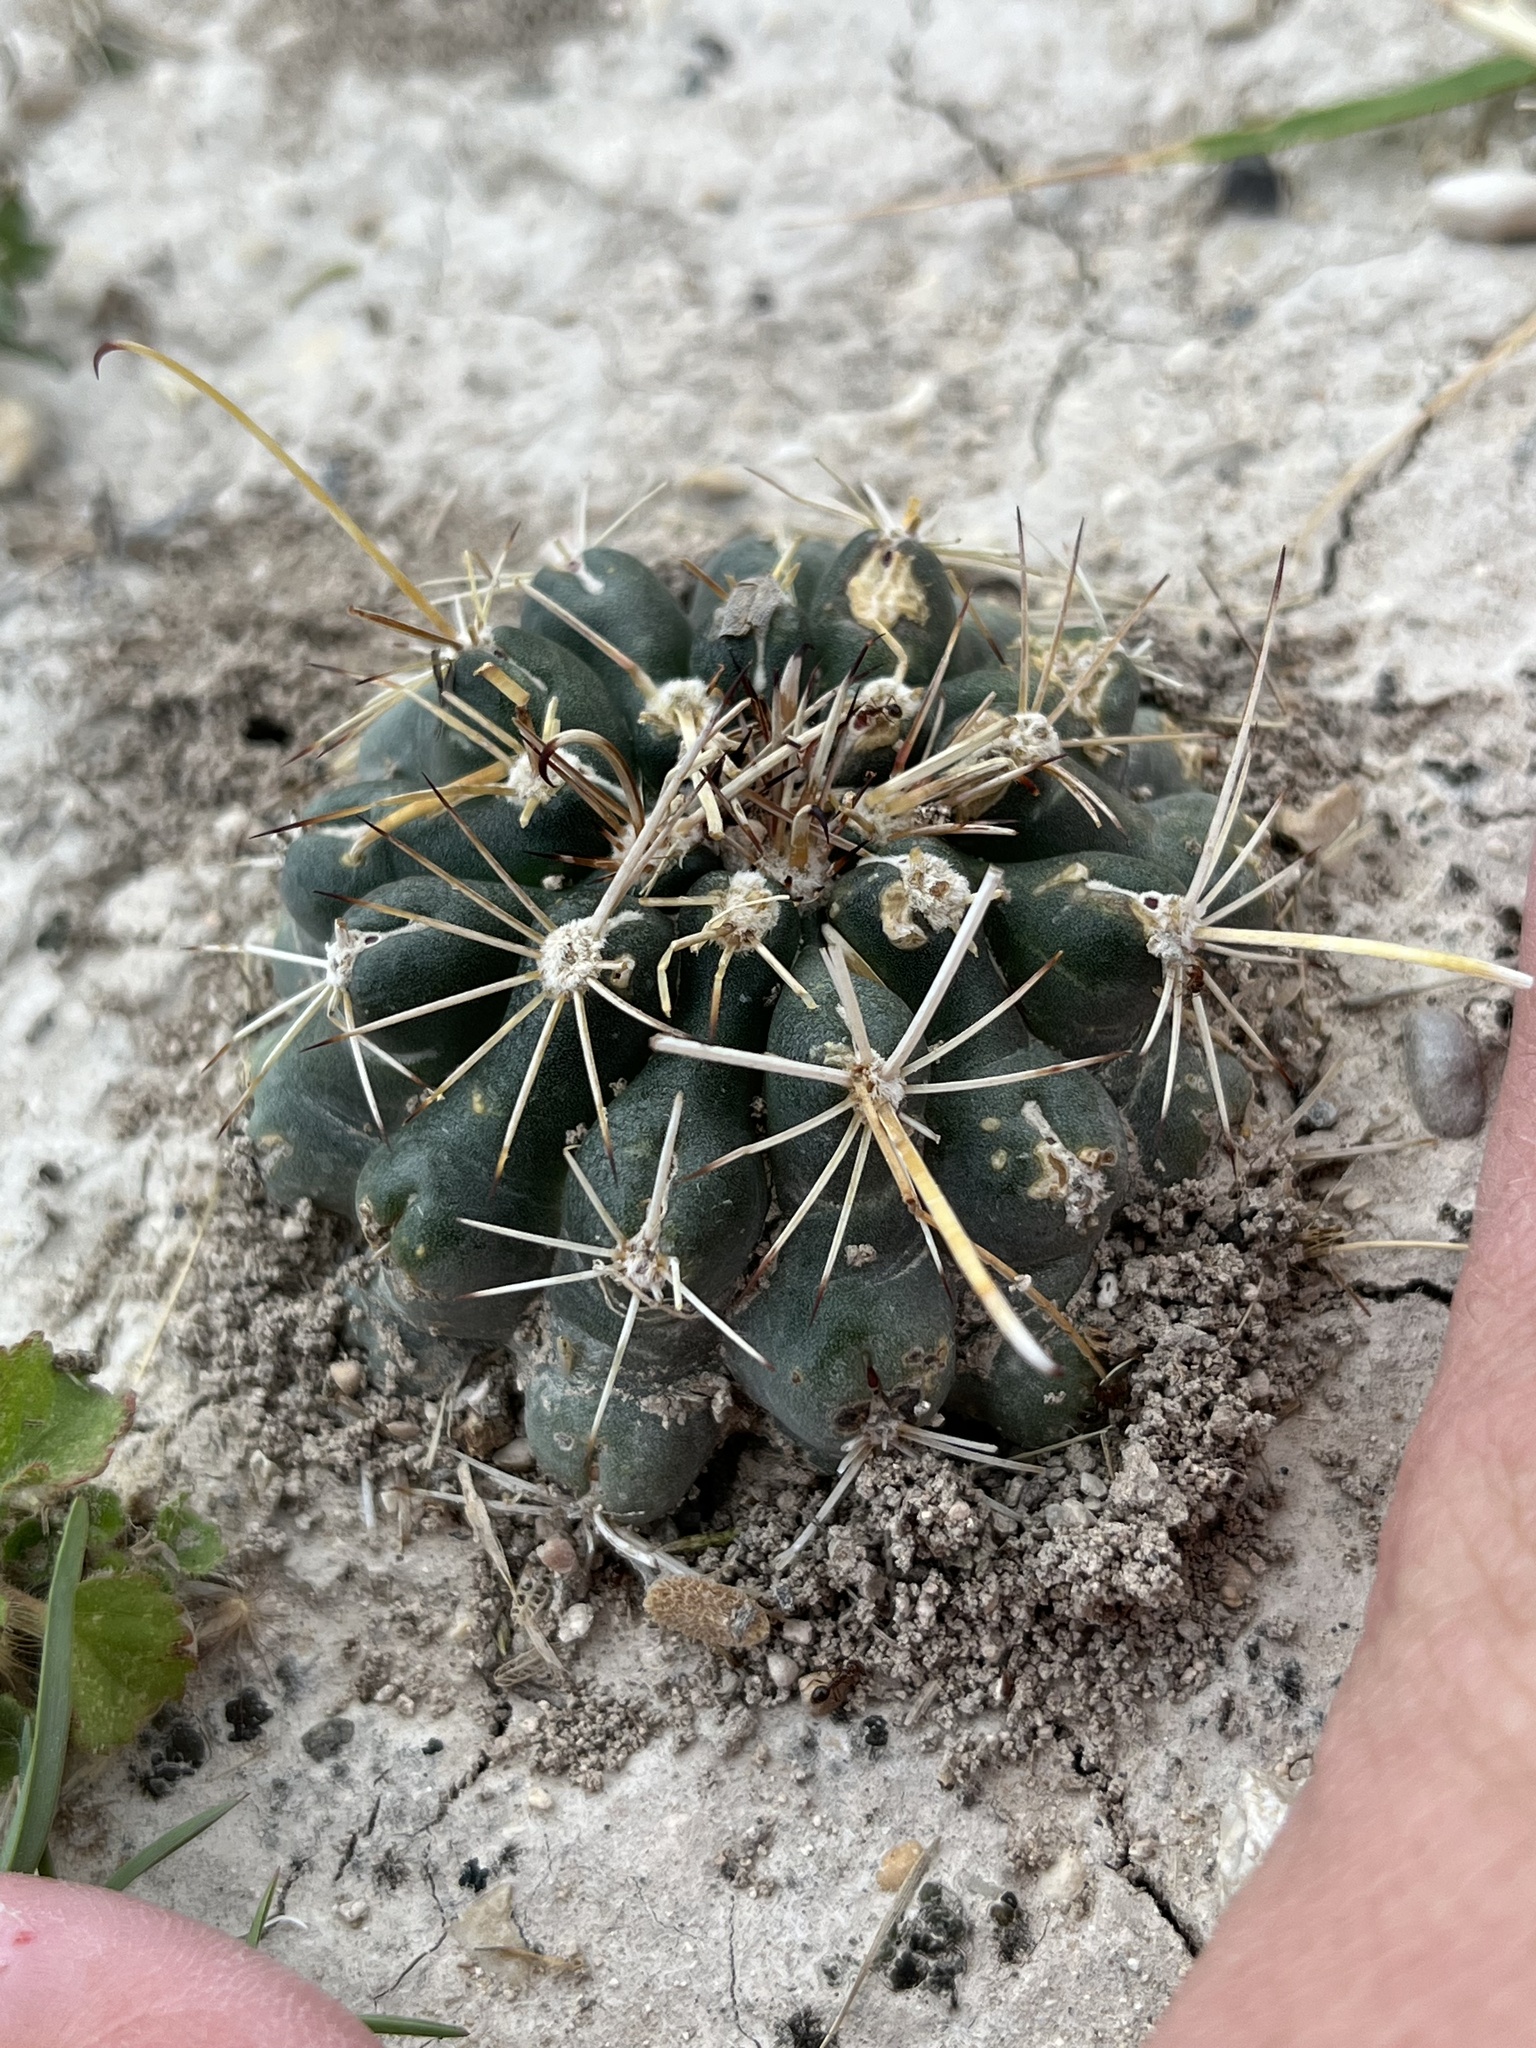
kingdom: Plantae
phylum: Tracheophyta
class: Magnoliopsida
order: Caryophyllales
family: Cactaceae
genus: Sclerocactus
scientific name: Sclerocactus brevihamatus
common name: Engelmann's fishhook cactus
